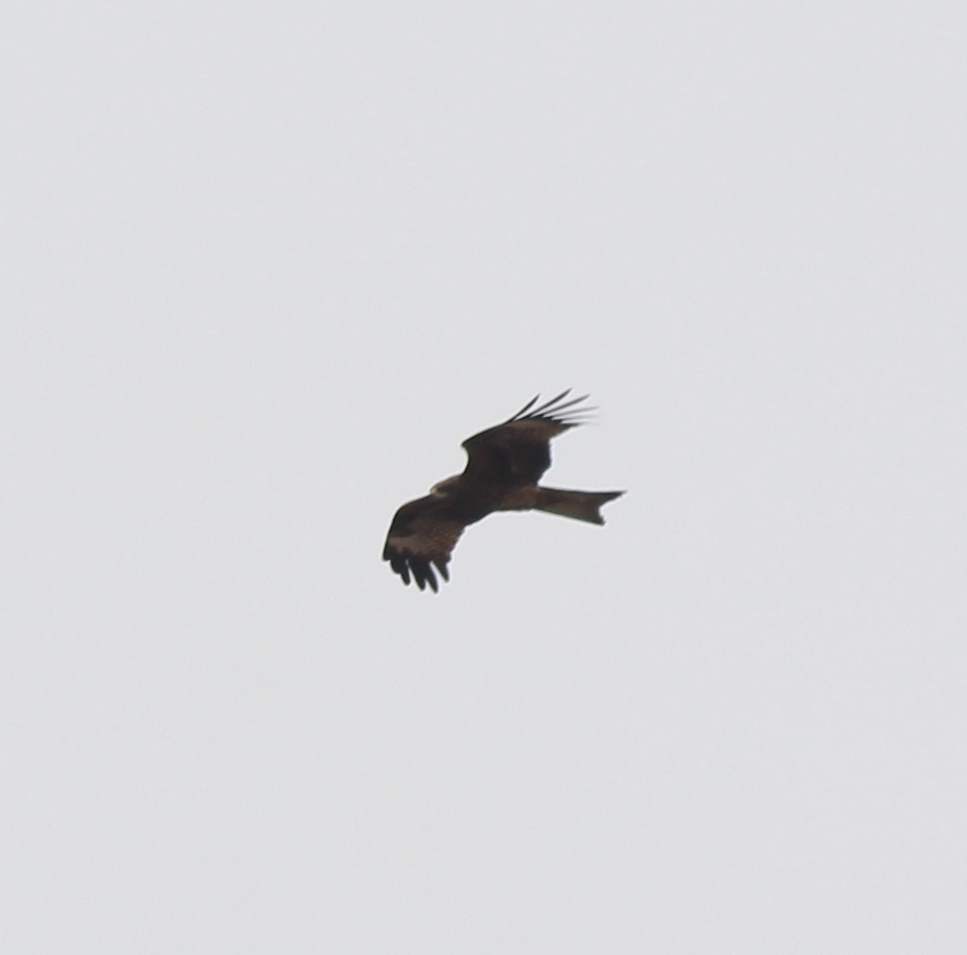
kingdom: Animalia
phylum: Chordata
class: Aves
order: Accipitriformes
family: Accipitridae
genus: Milvus
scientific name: Milvus migrans
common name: Black kite
